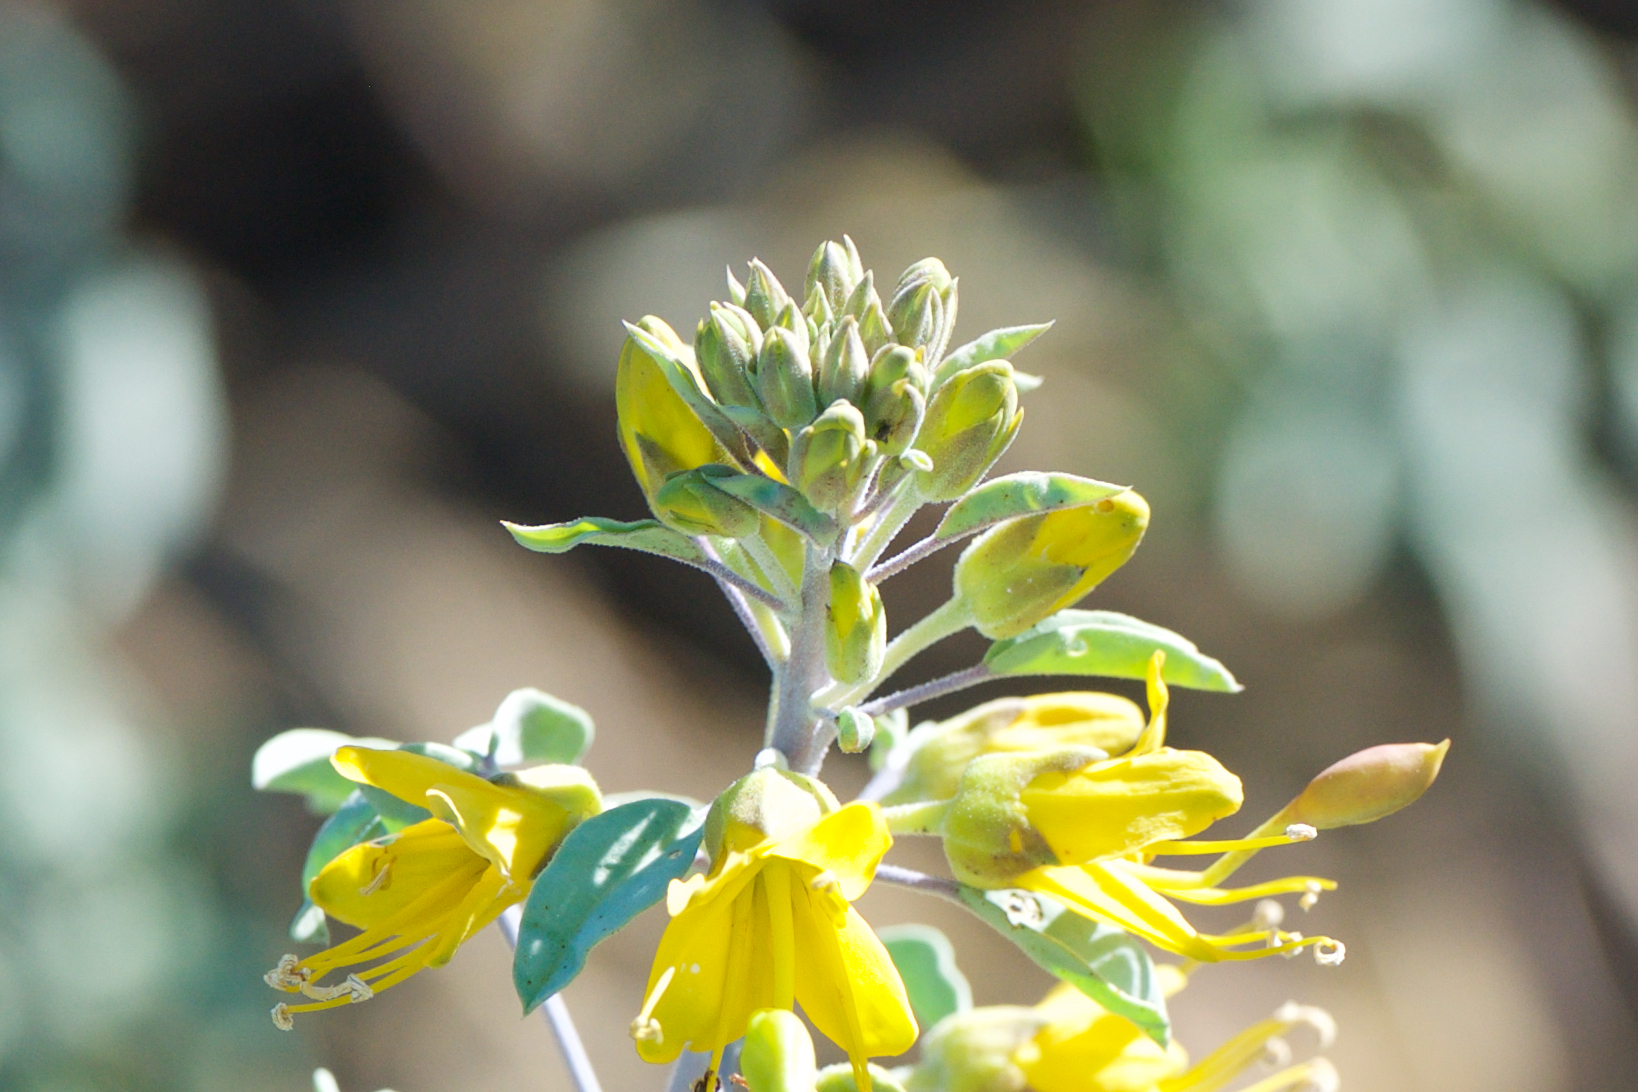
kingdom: Plantae
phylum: Tracheophyta
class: Magnoliopsida
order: Brassicales
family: Cleomaceae
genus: Cleomella
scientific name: Cleomella arborea
